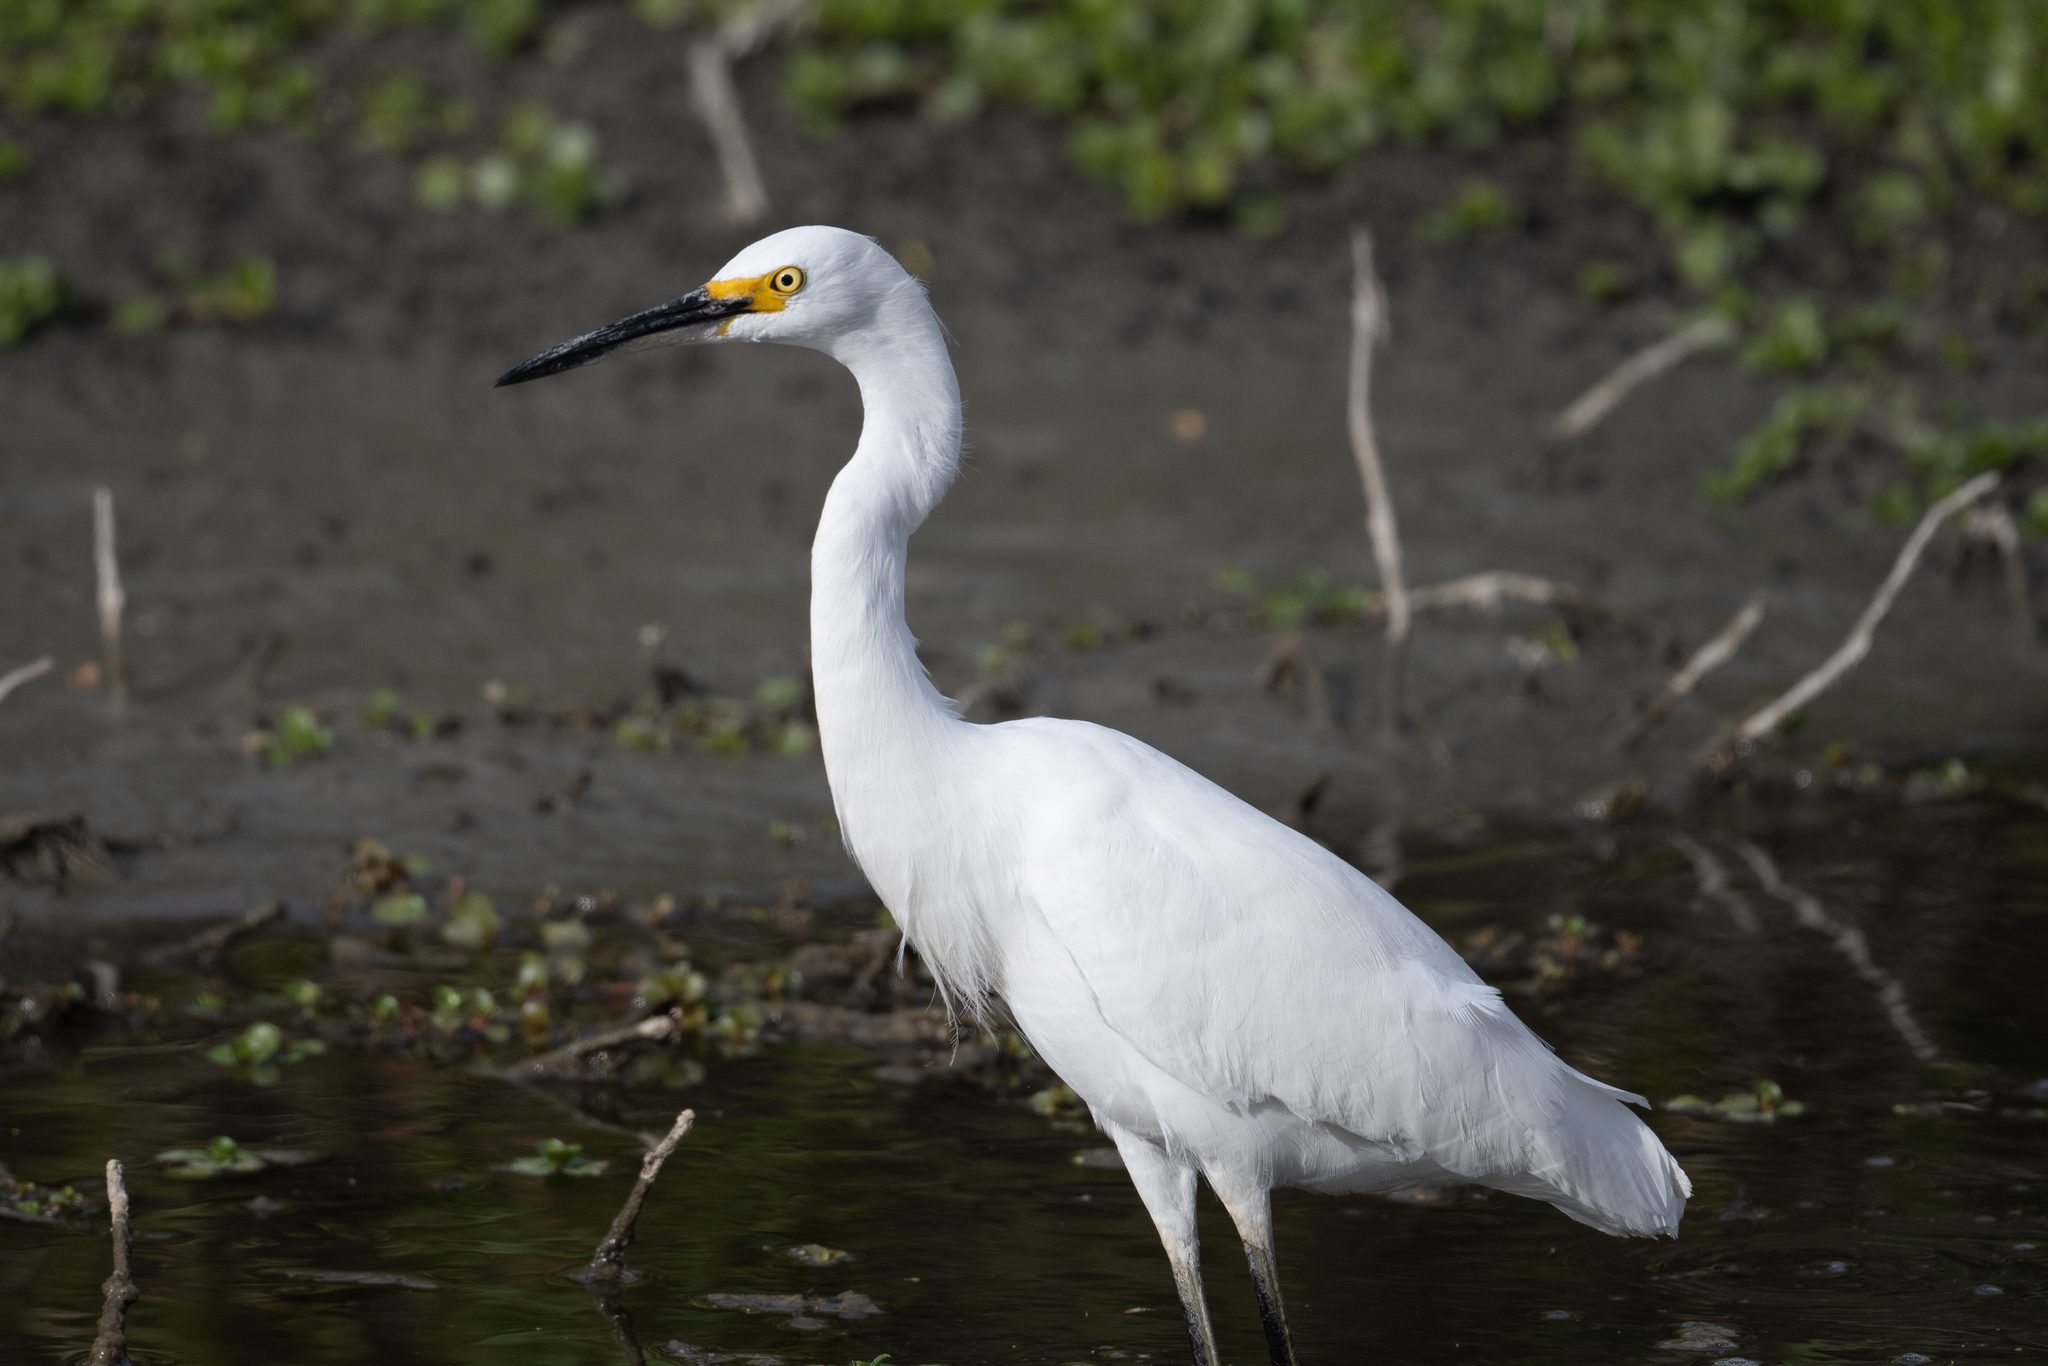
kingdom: Animalia
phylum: Chordata
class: Aves
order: Pelecaniformes
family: Ardeidae
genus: Egretta
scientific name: Egretta thula
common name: Snowy egret
